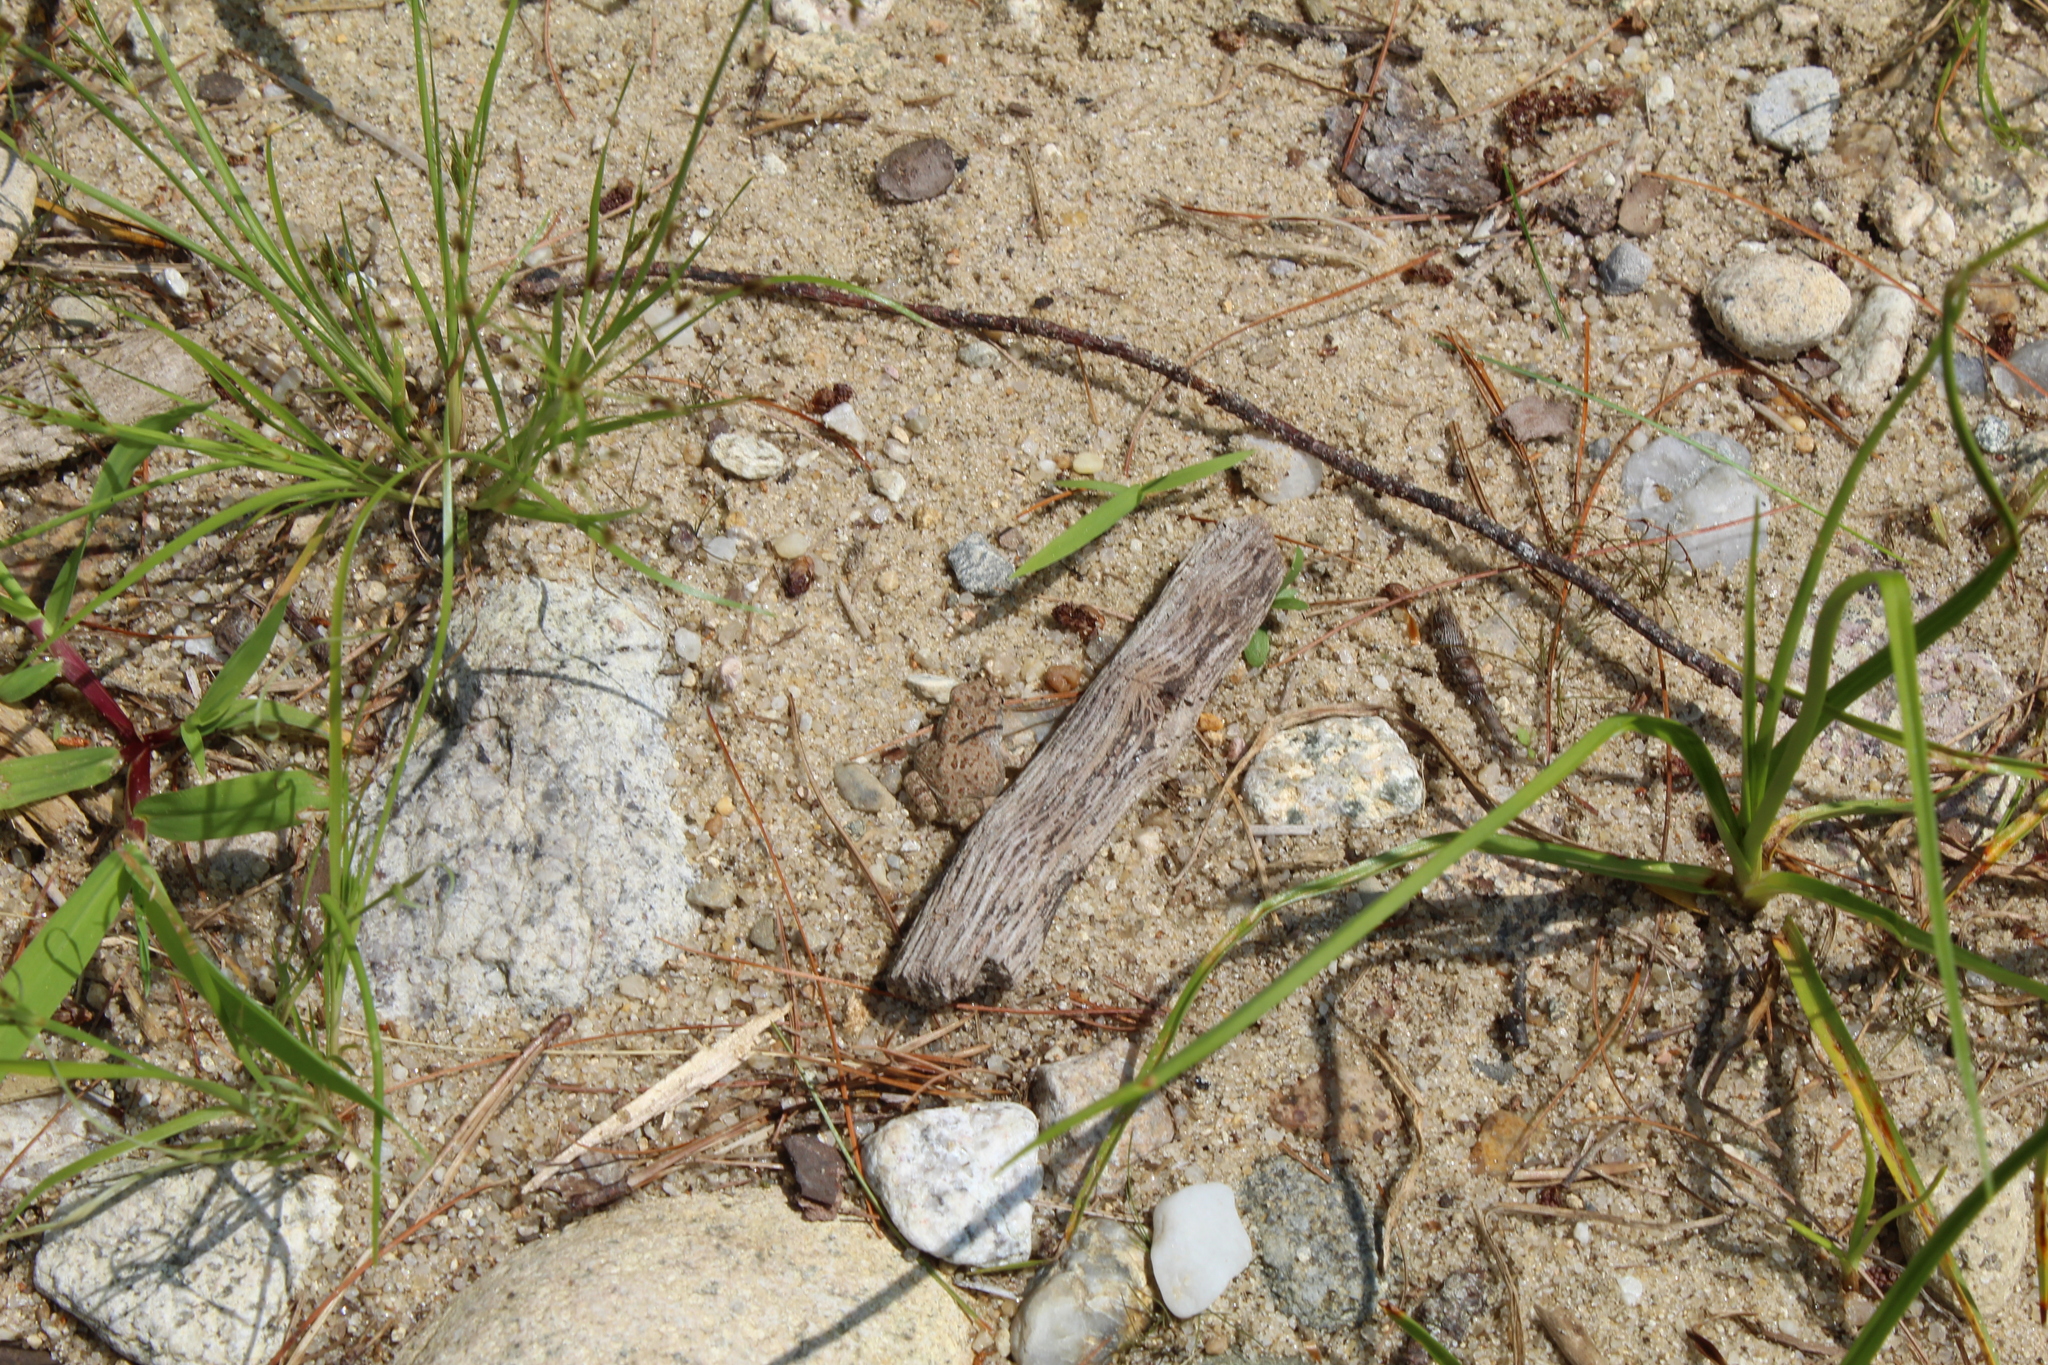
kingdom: Animalia
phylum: Chordata
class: Amphibia
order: Anura
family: Bufonidae
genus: Anaxyrus
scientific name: Anaxyrus fowleri
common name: Fowler's toad
